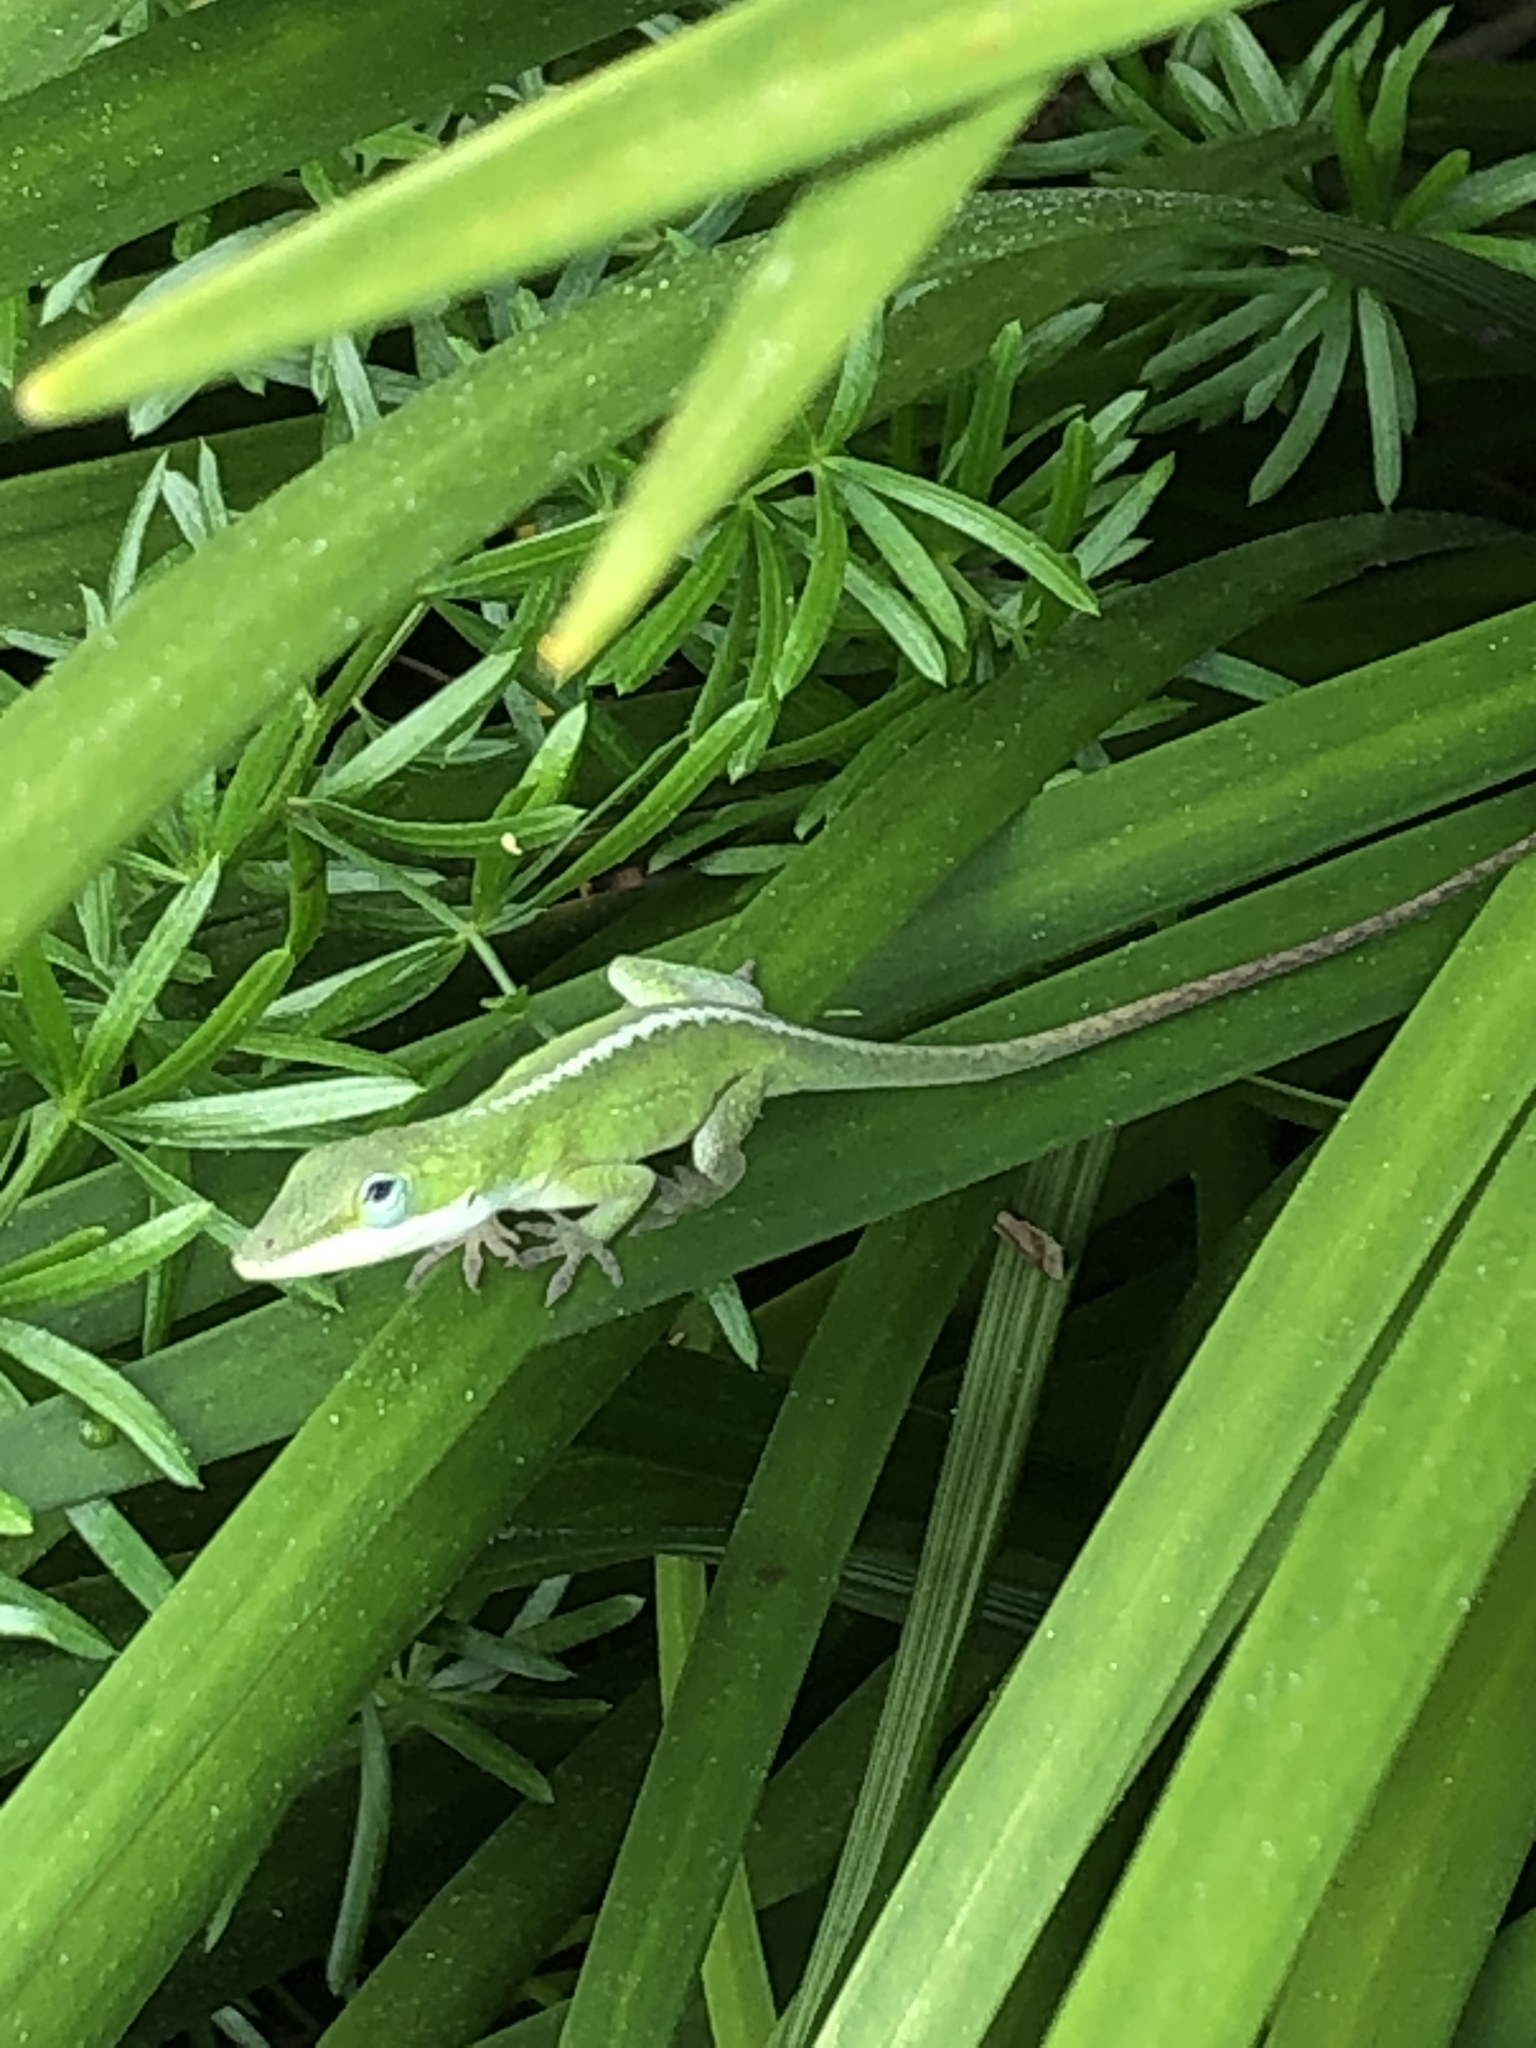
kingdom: Animalia
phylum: Chordata
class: Squamata
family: Dactyloidae
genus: Anolis
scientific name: Anolis carolinensis
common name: Green anole
